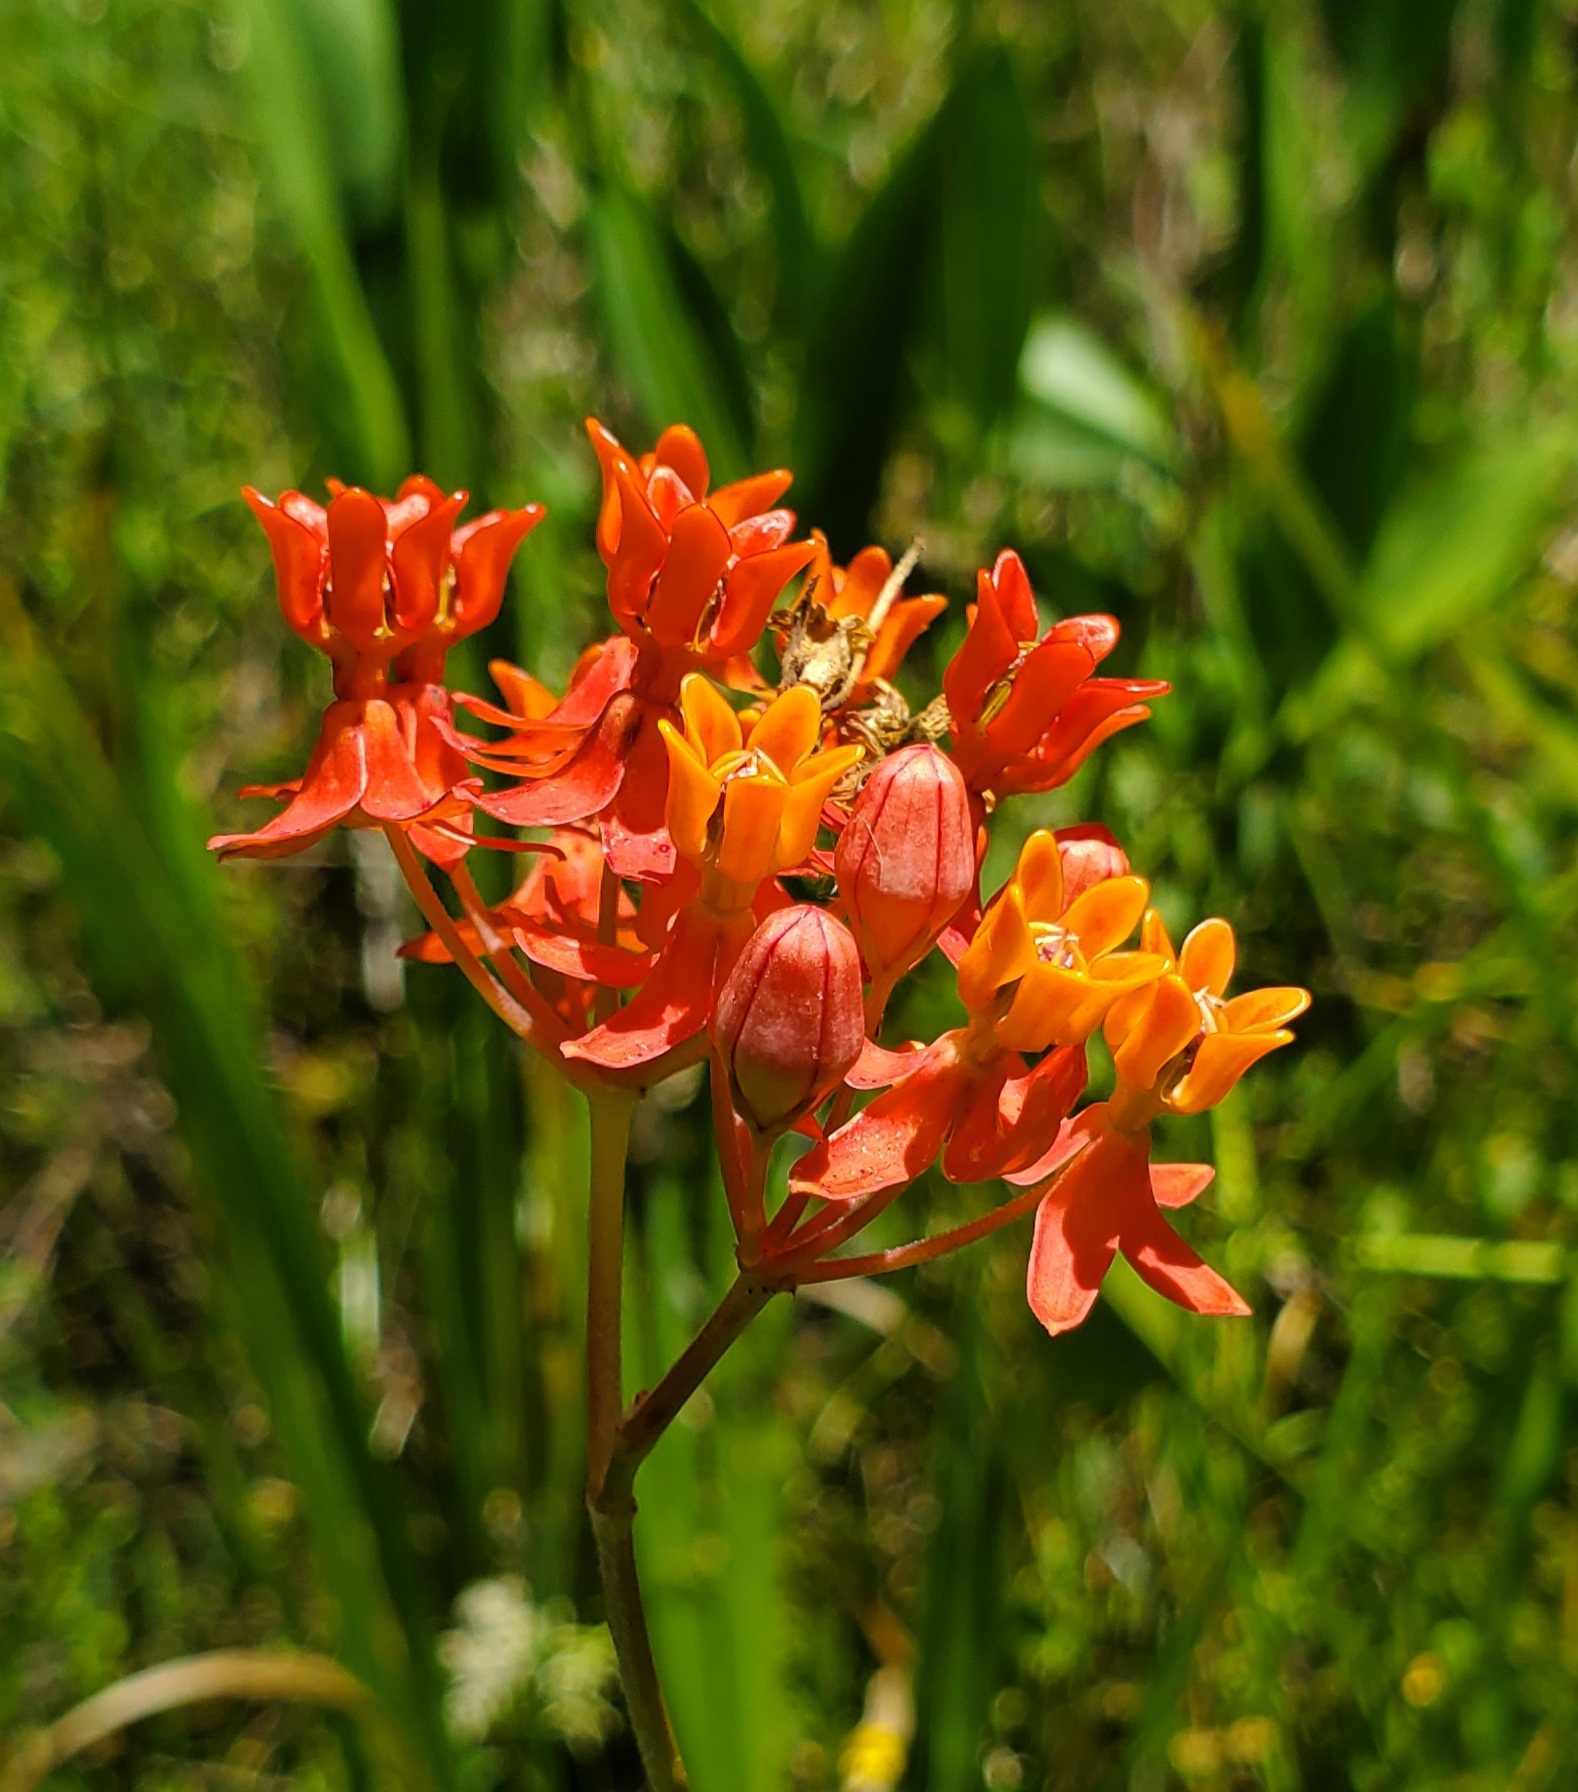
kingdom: Plantae
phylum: Tracheophyta
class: Magnoliopsida
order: Gentianales
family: Apocynaceae
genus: Asclepias
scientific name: Asclepias lanceolata
